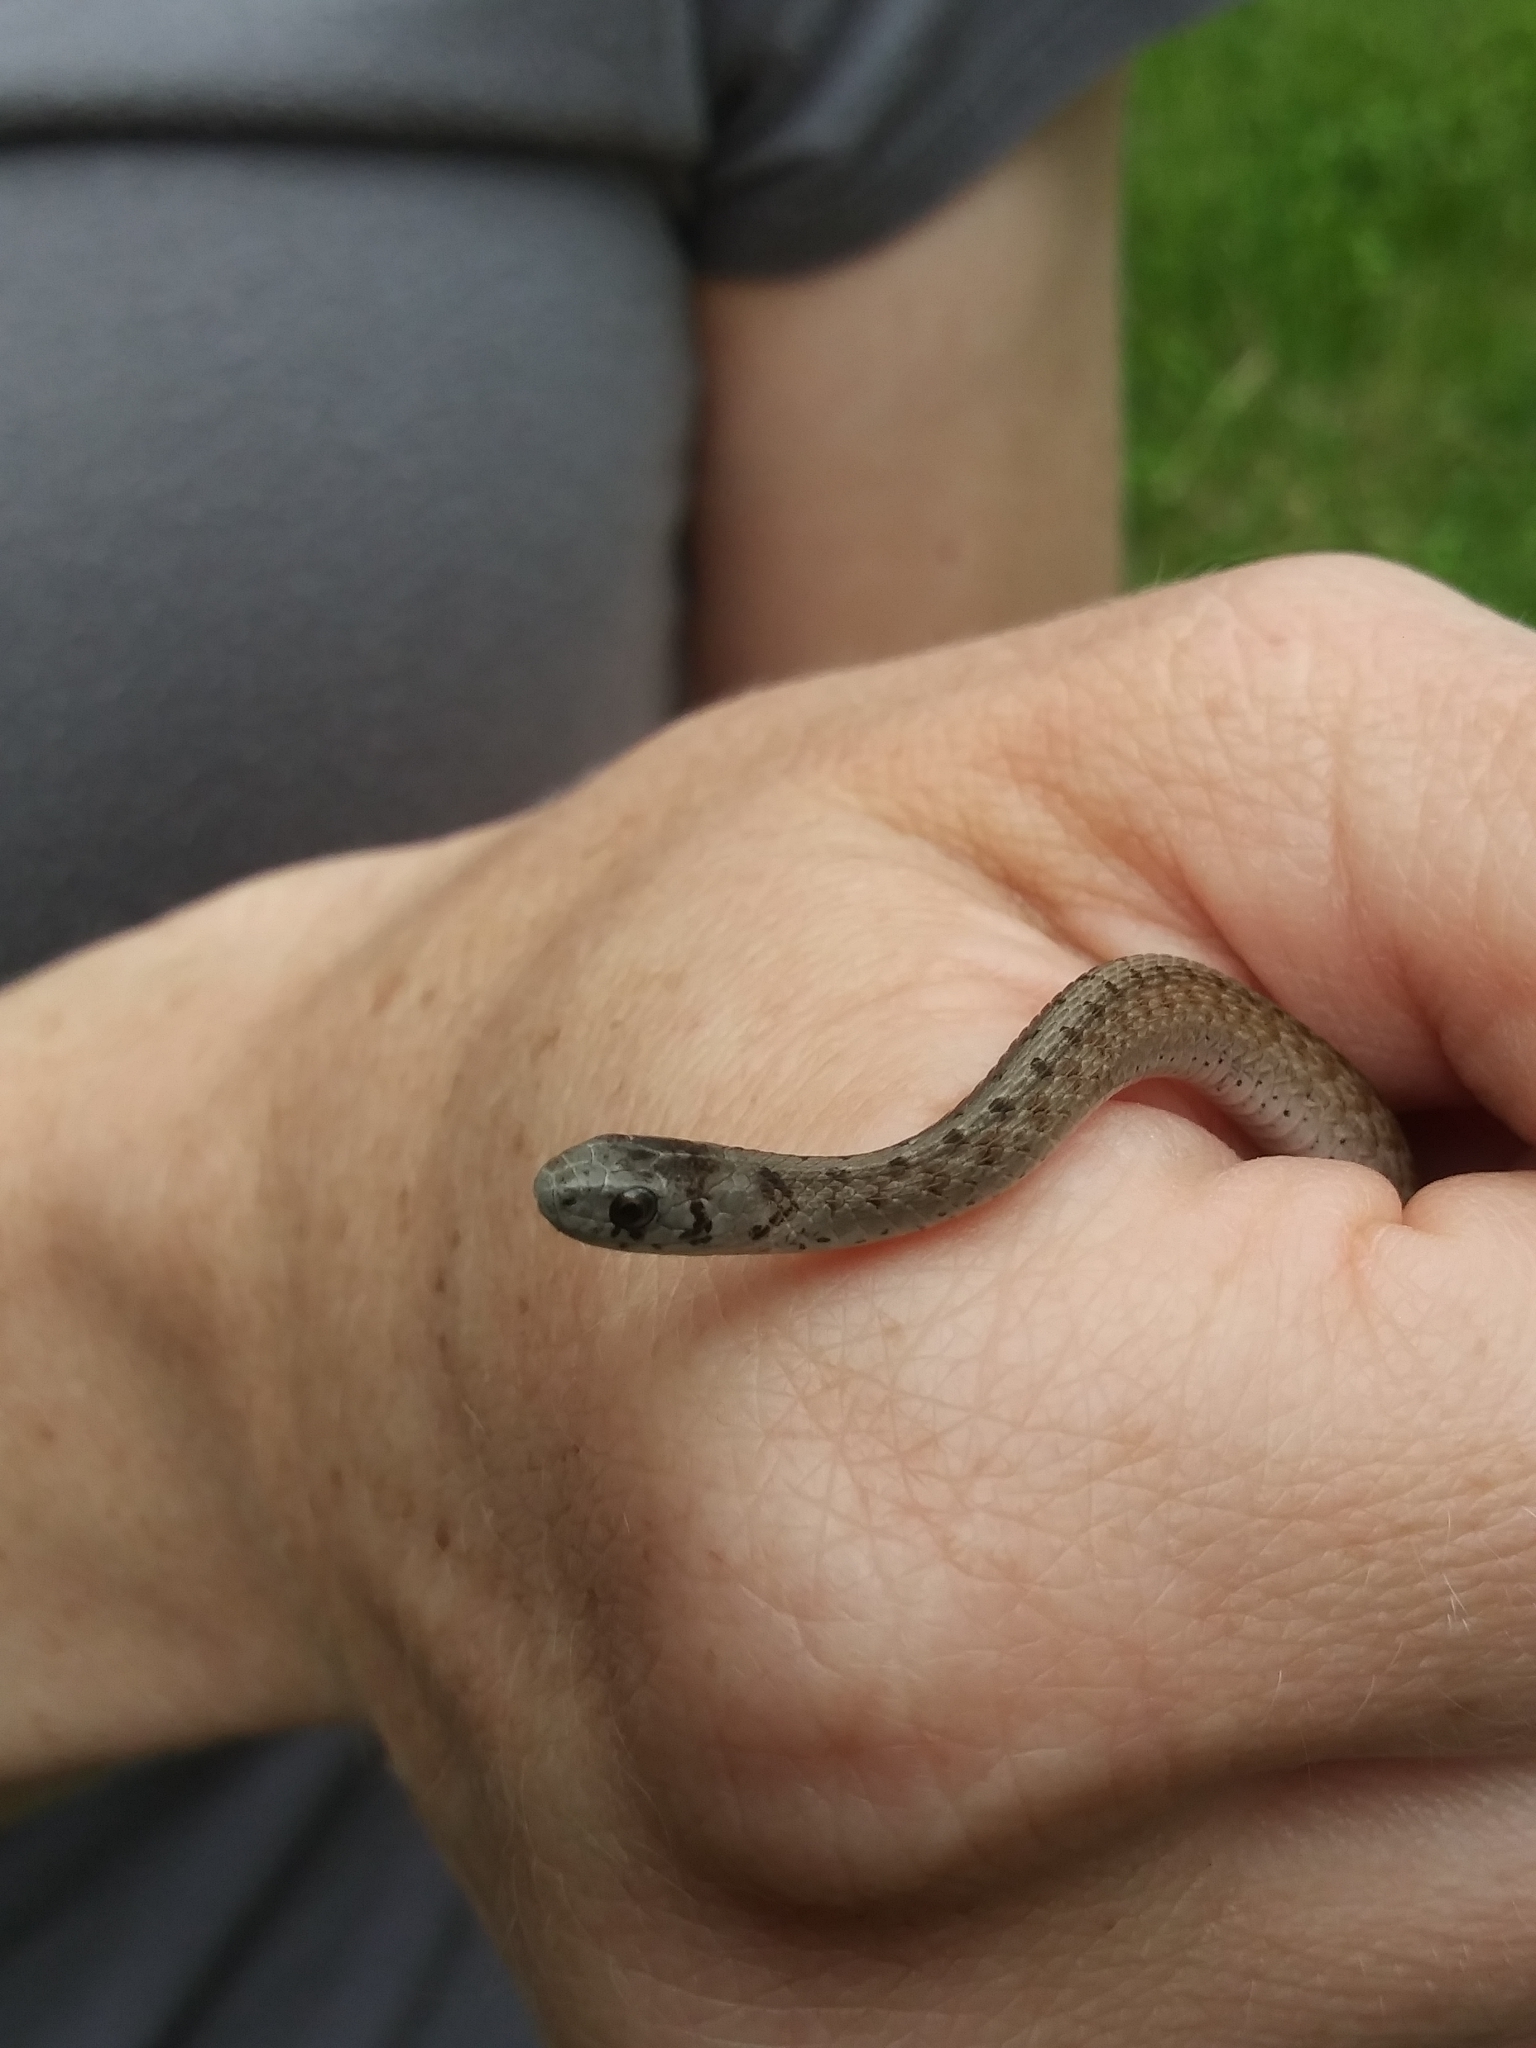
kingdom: Animalia
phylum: Chordata
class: Squamata
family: Colubridae
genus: Storeria
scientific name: Storeria dekayi
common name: (dekay’s) brown snake
